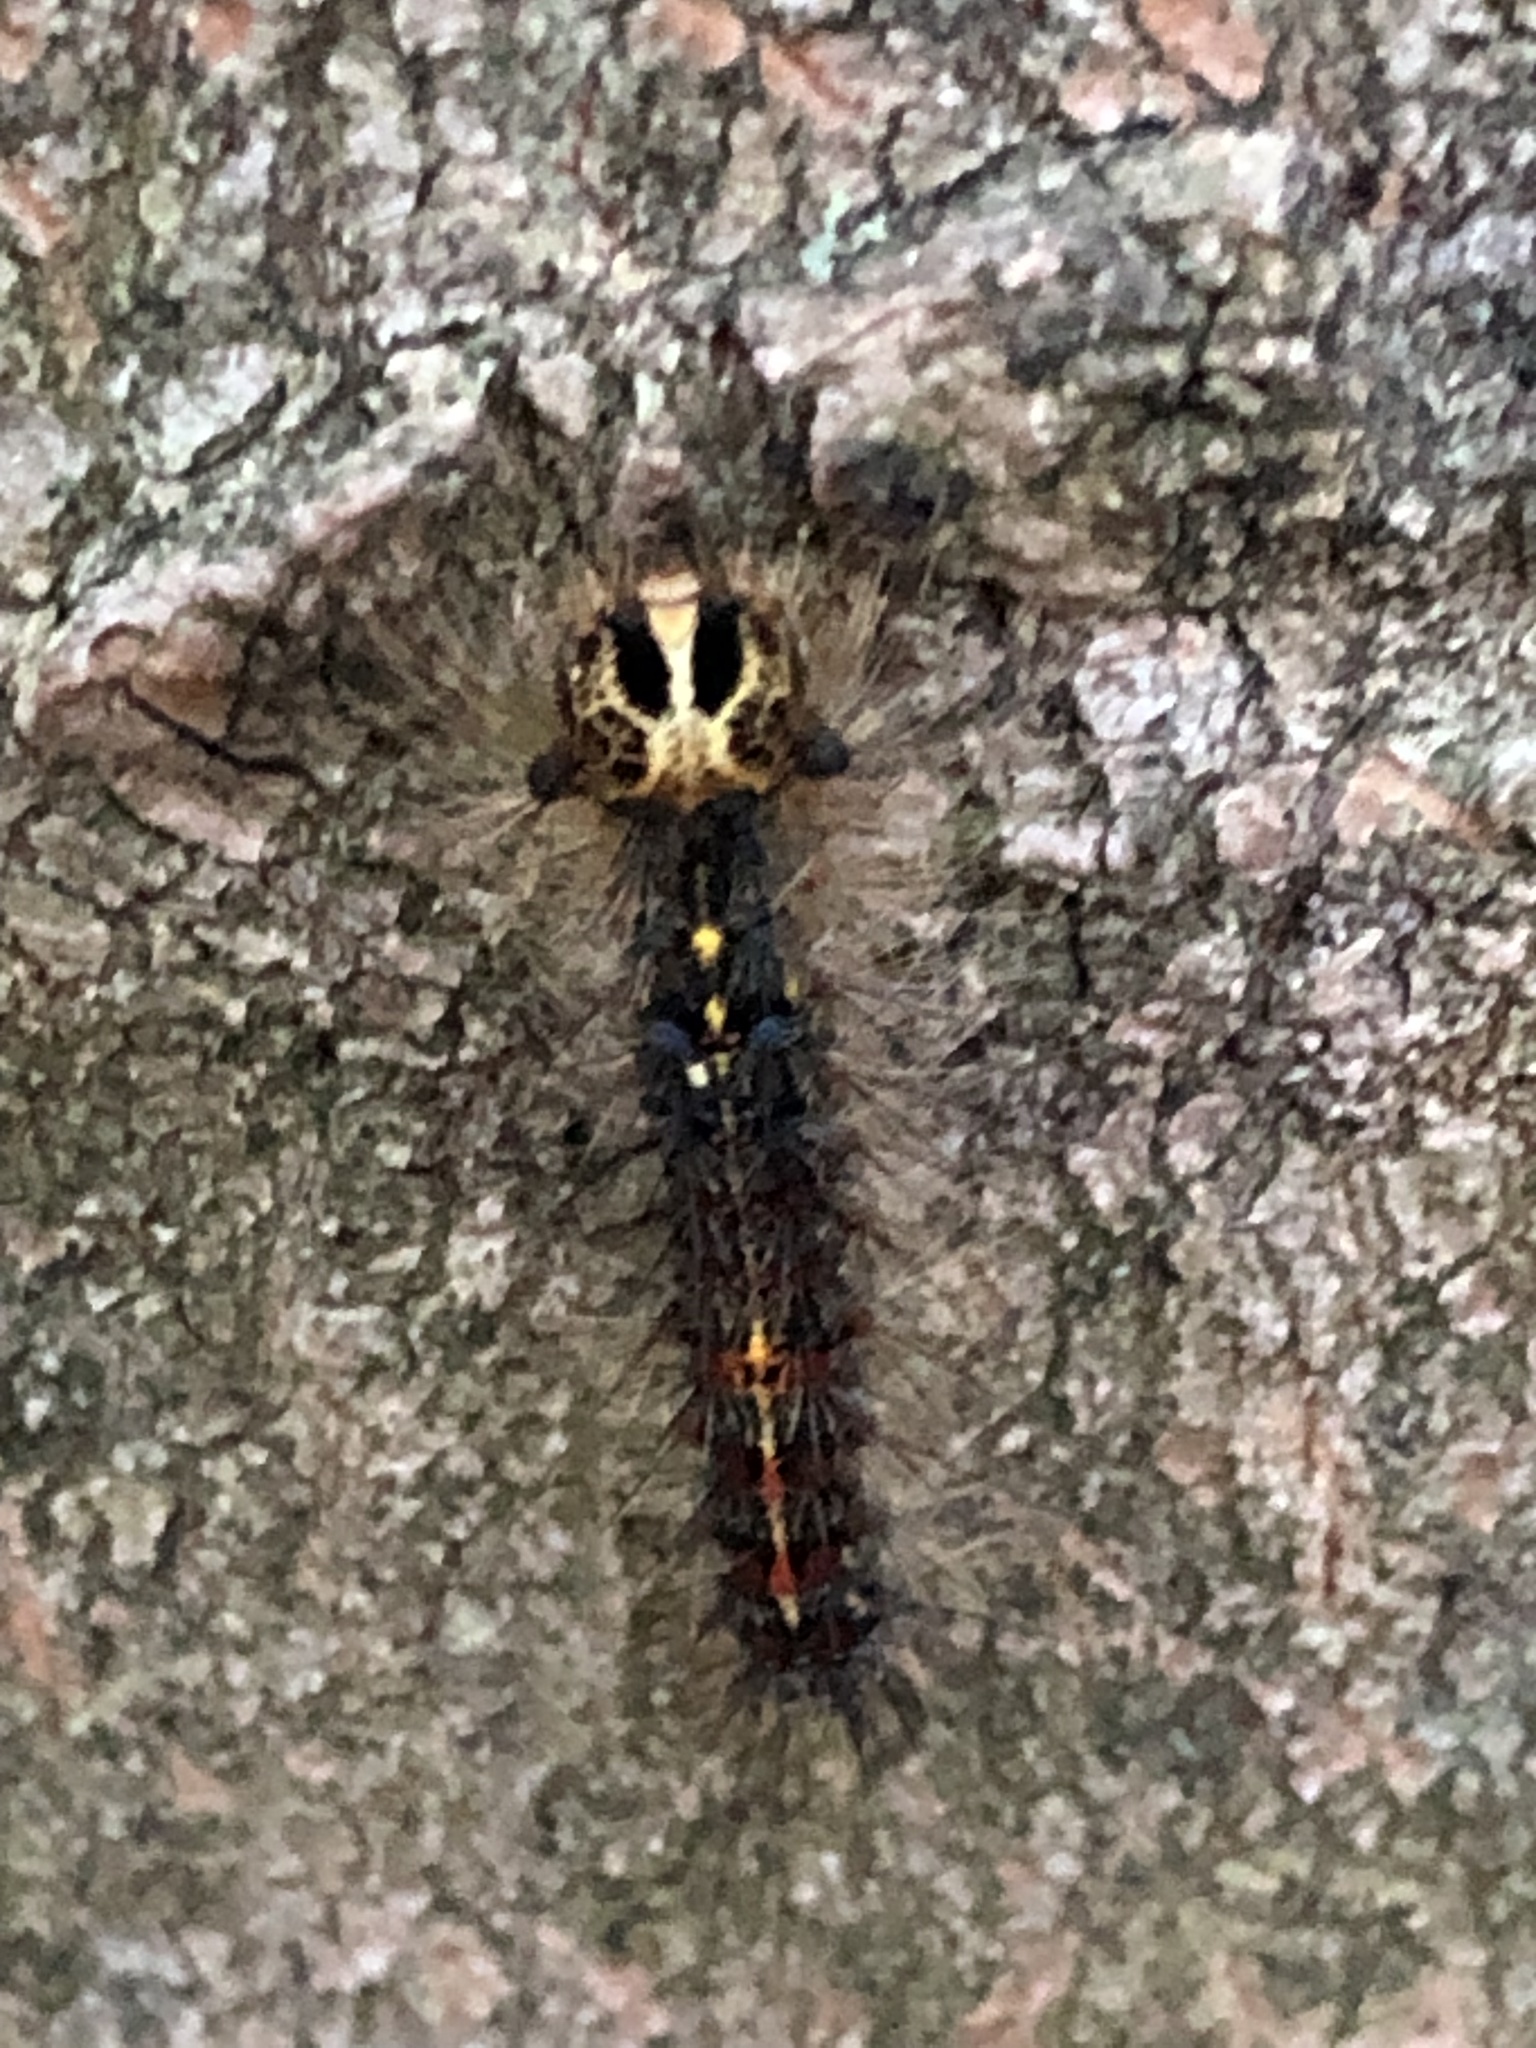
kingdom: Animalia
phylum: Arthropoda
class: Insecta
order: Lepidoptera
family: Erebidae
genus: Lymantria
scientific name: Lymantria dispar
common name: Gypsy moth
